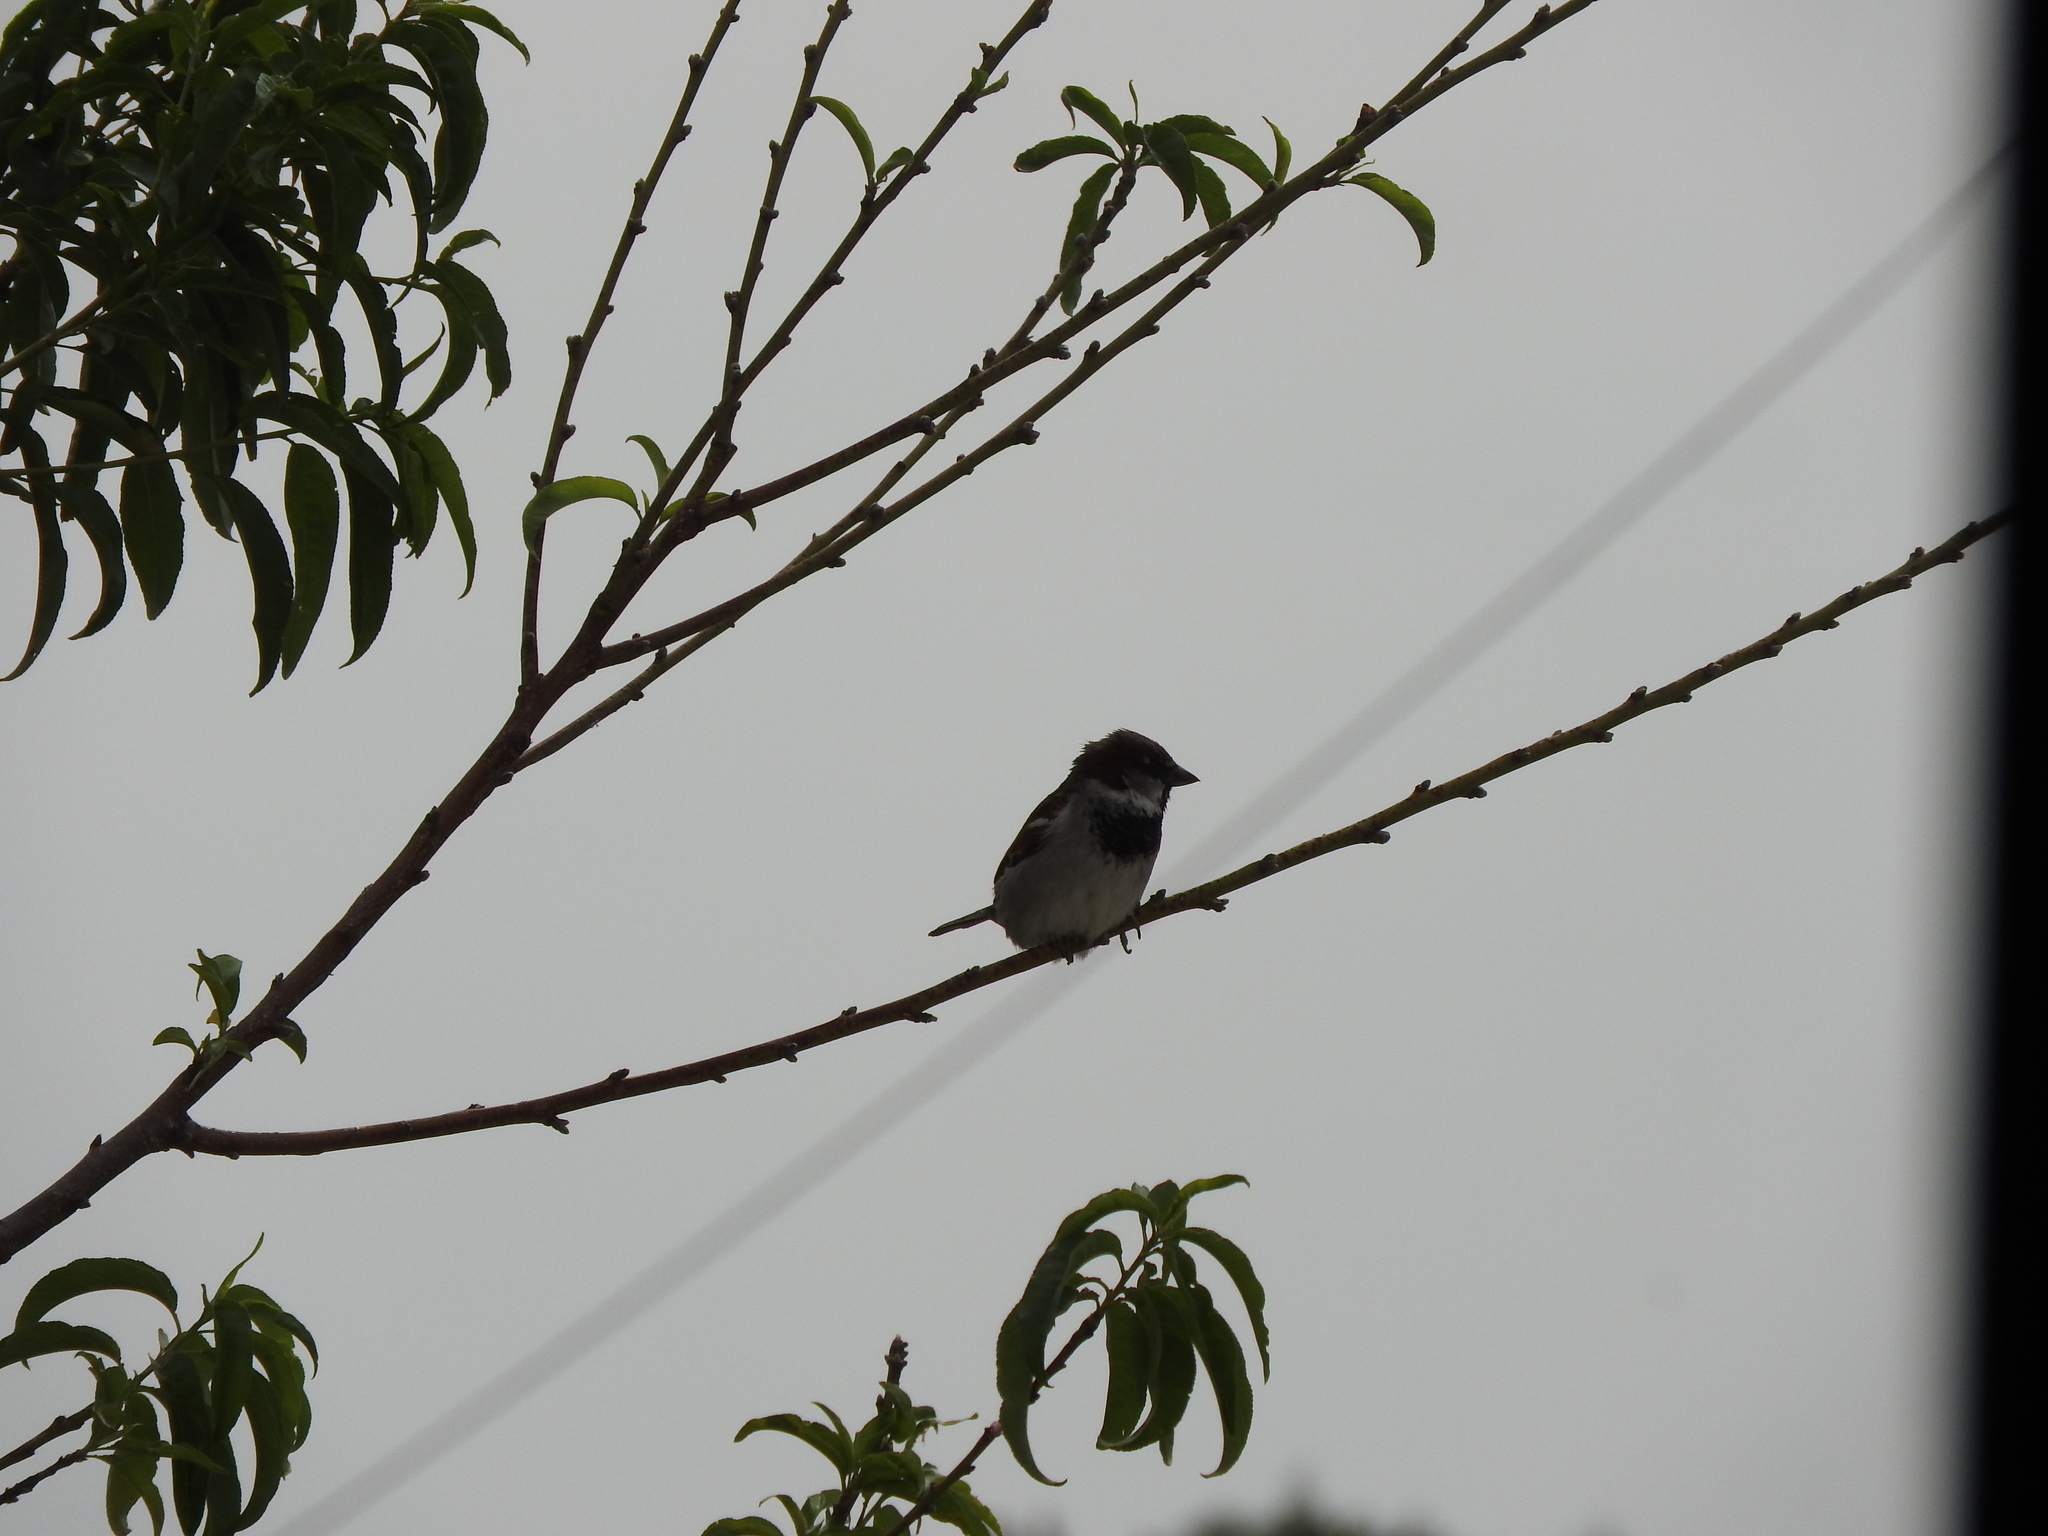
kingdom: Animalia
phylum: Chordata
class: Aves
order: Passeriformes
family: Passeridae
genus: Passer
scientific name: Passer domesticus
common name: House sparrow
